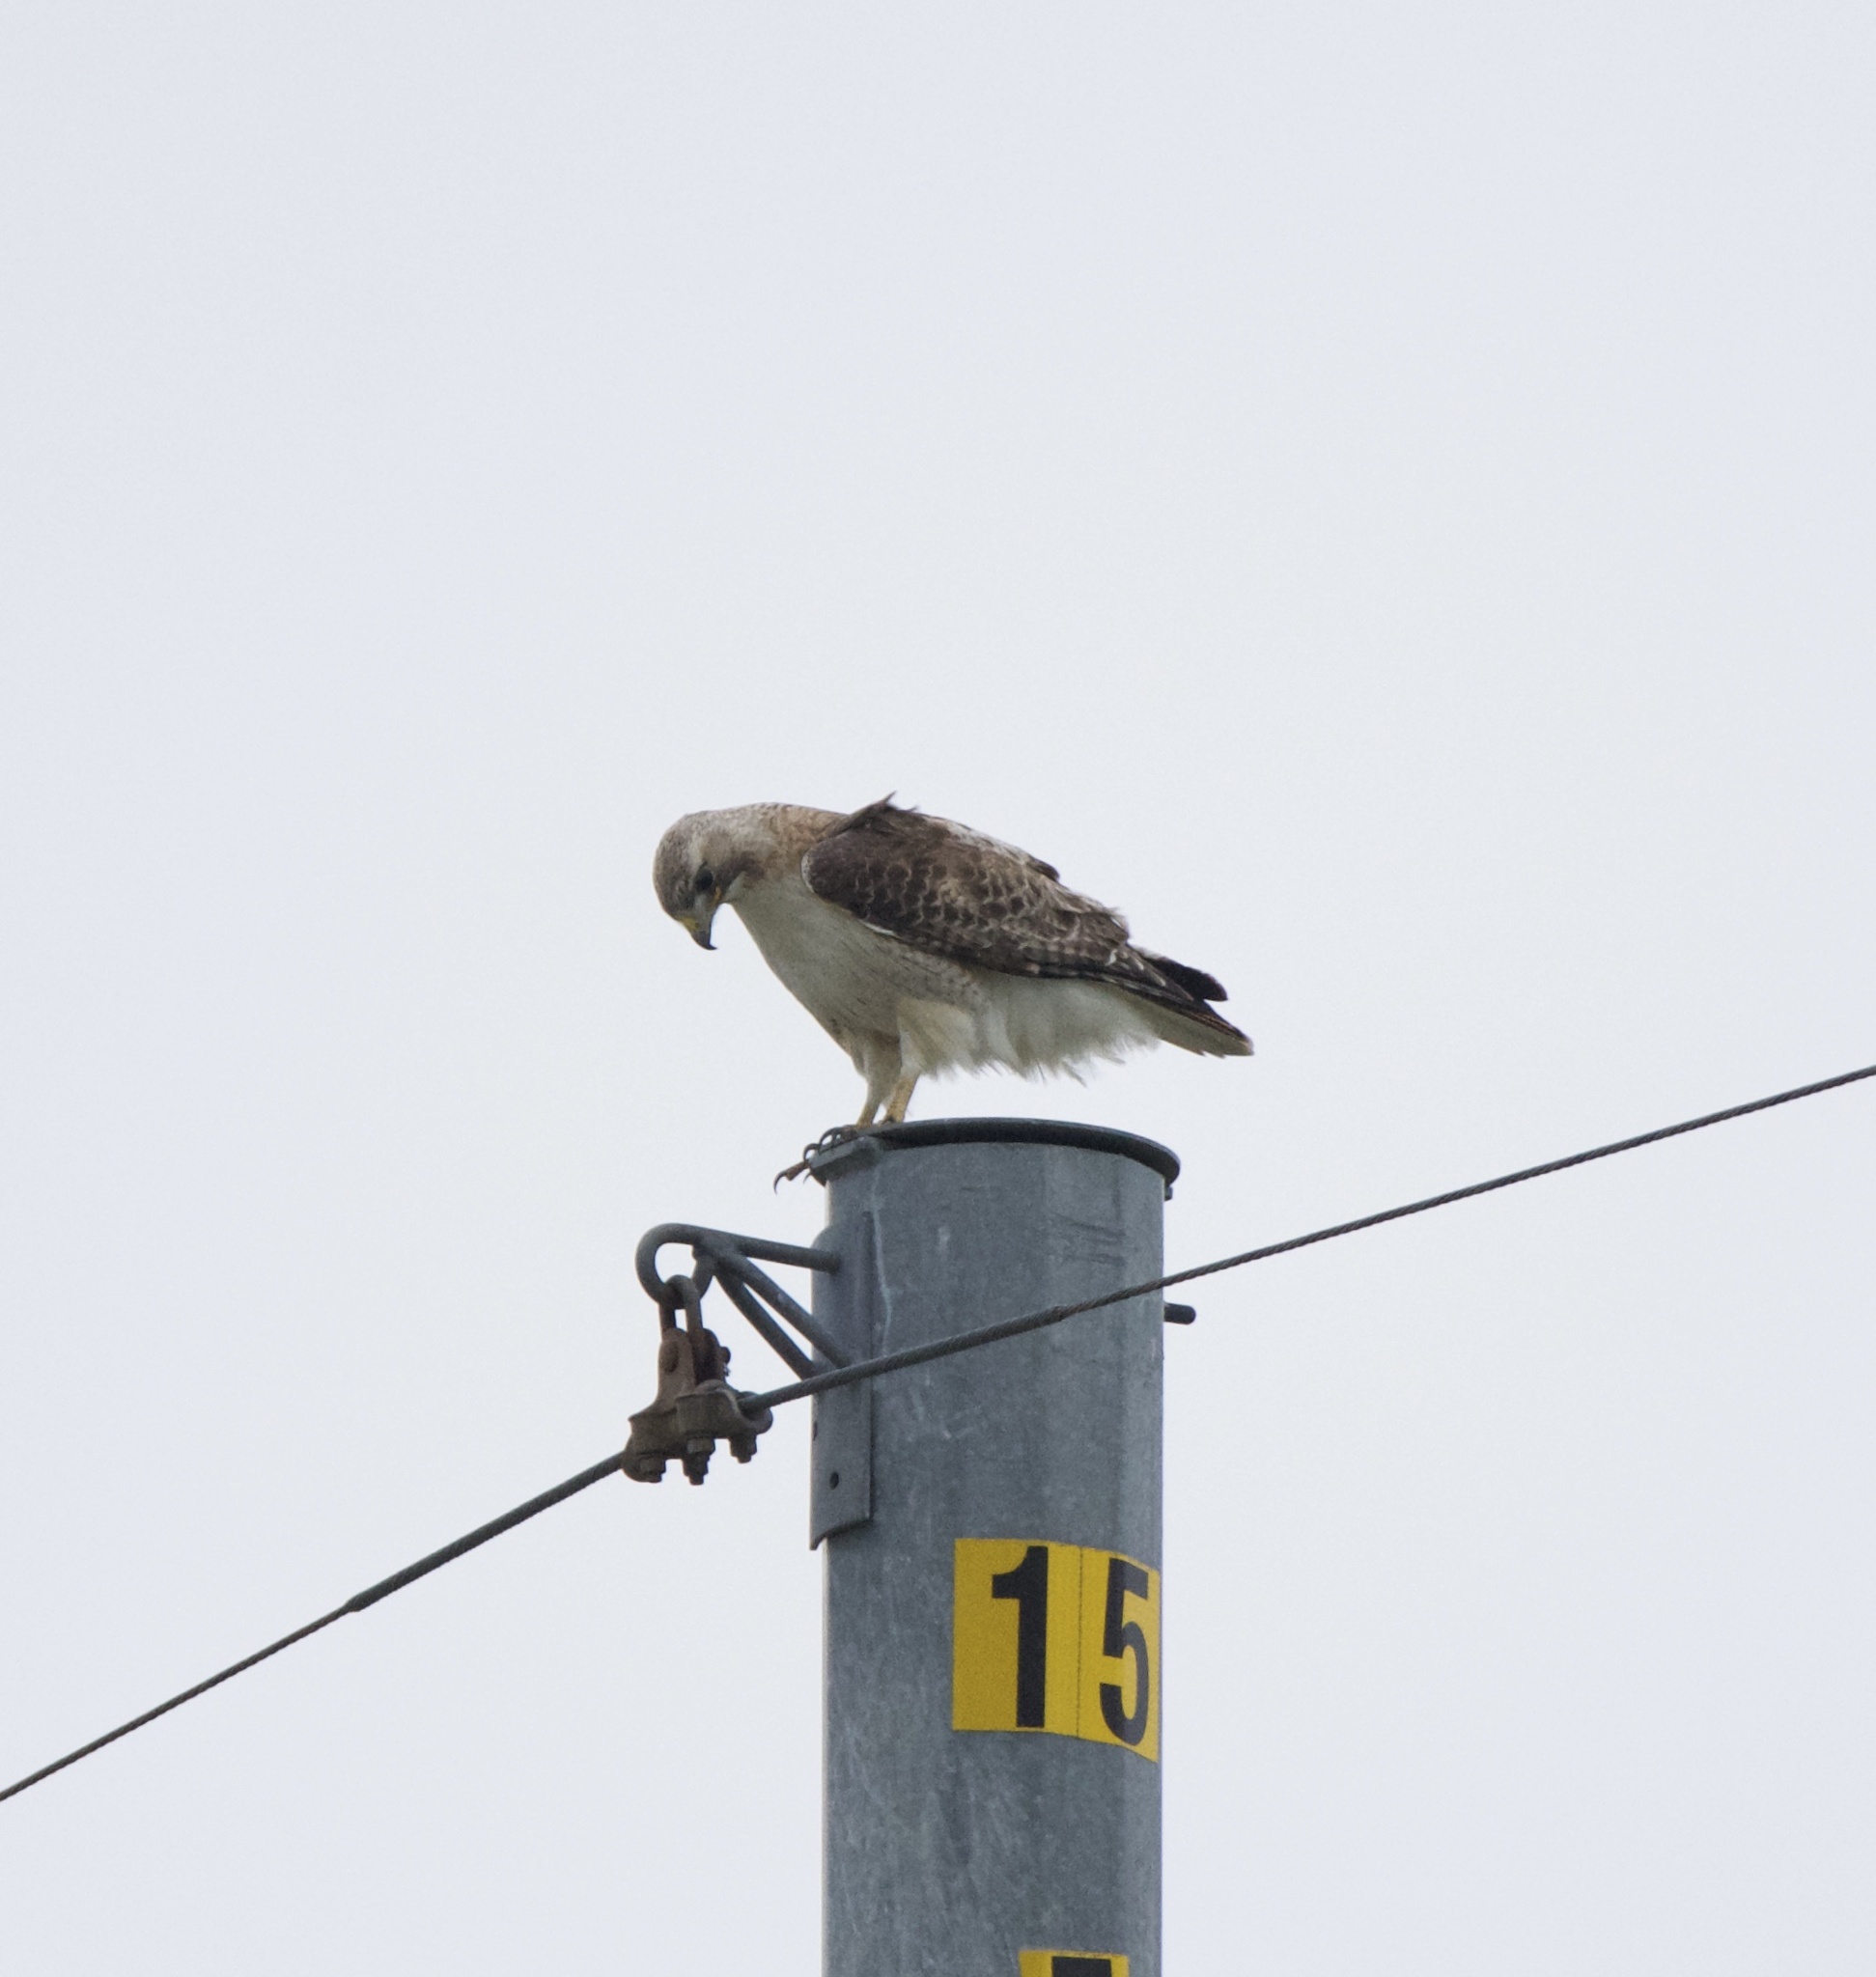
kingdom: Animalia
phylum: Chordata
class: Aves
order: Accipitriformes
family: Accipitridae
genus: Buteo
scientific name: Buteo jamaicensis
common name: Red-tailed hawk
